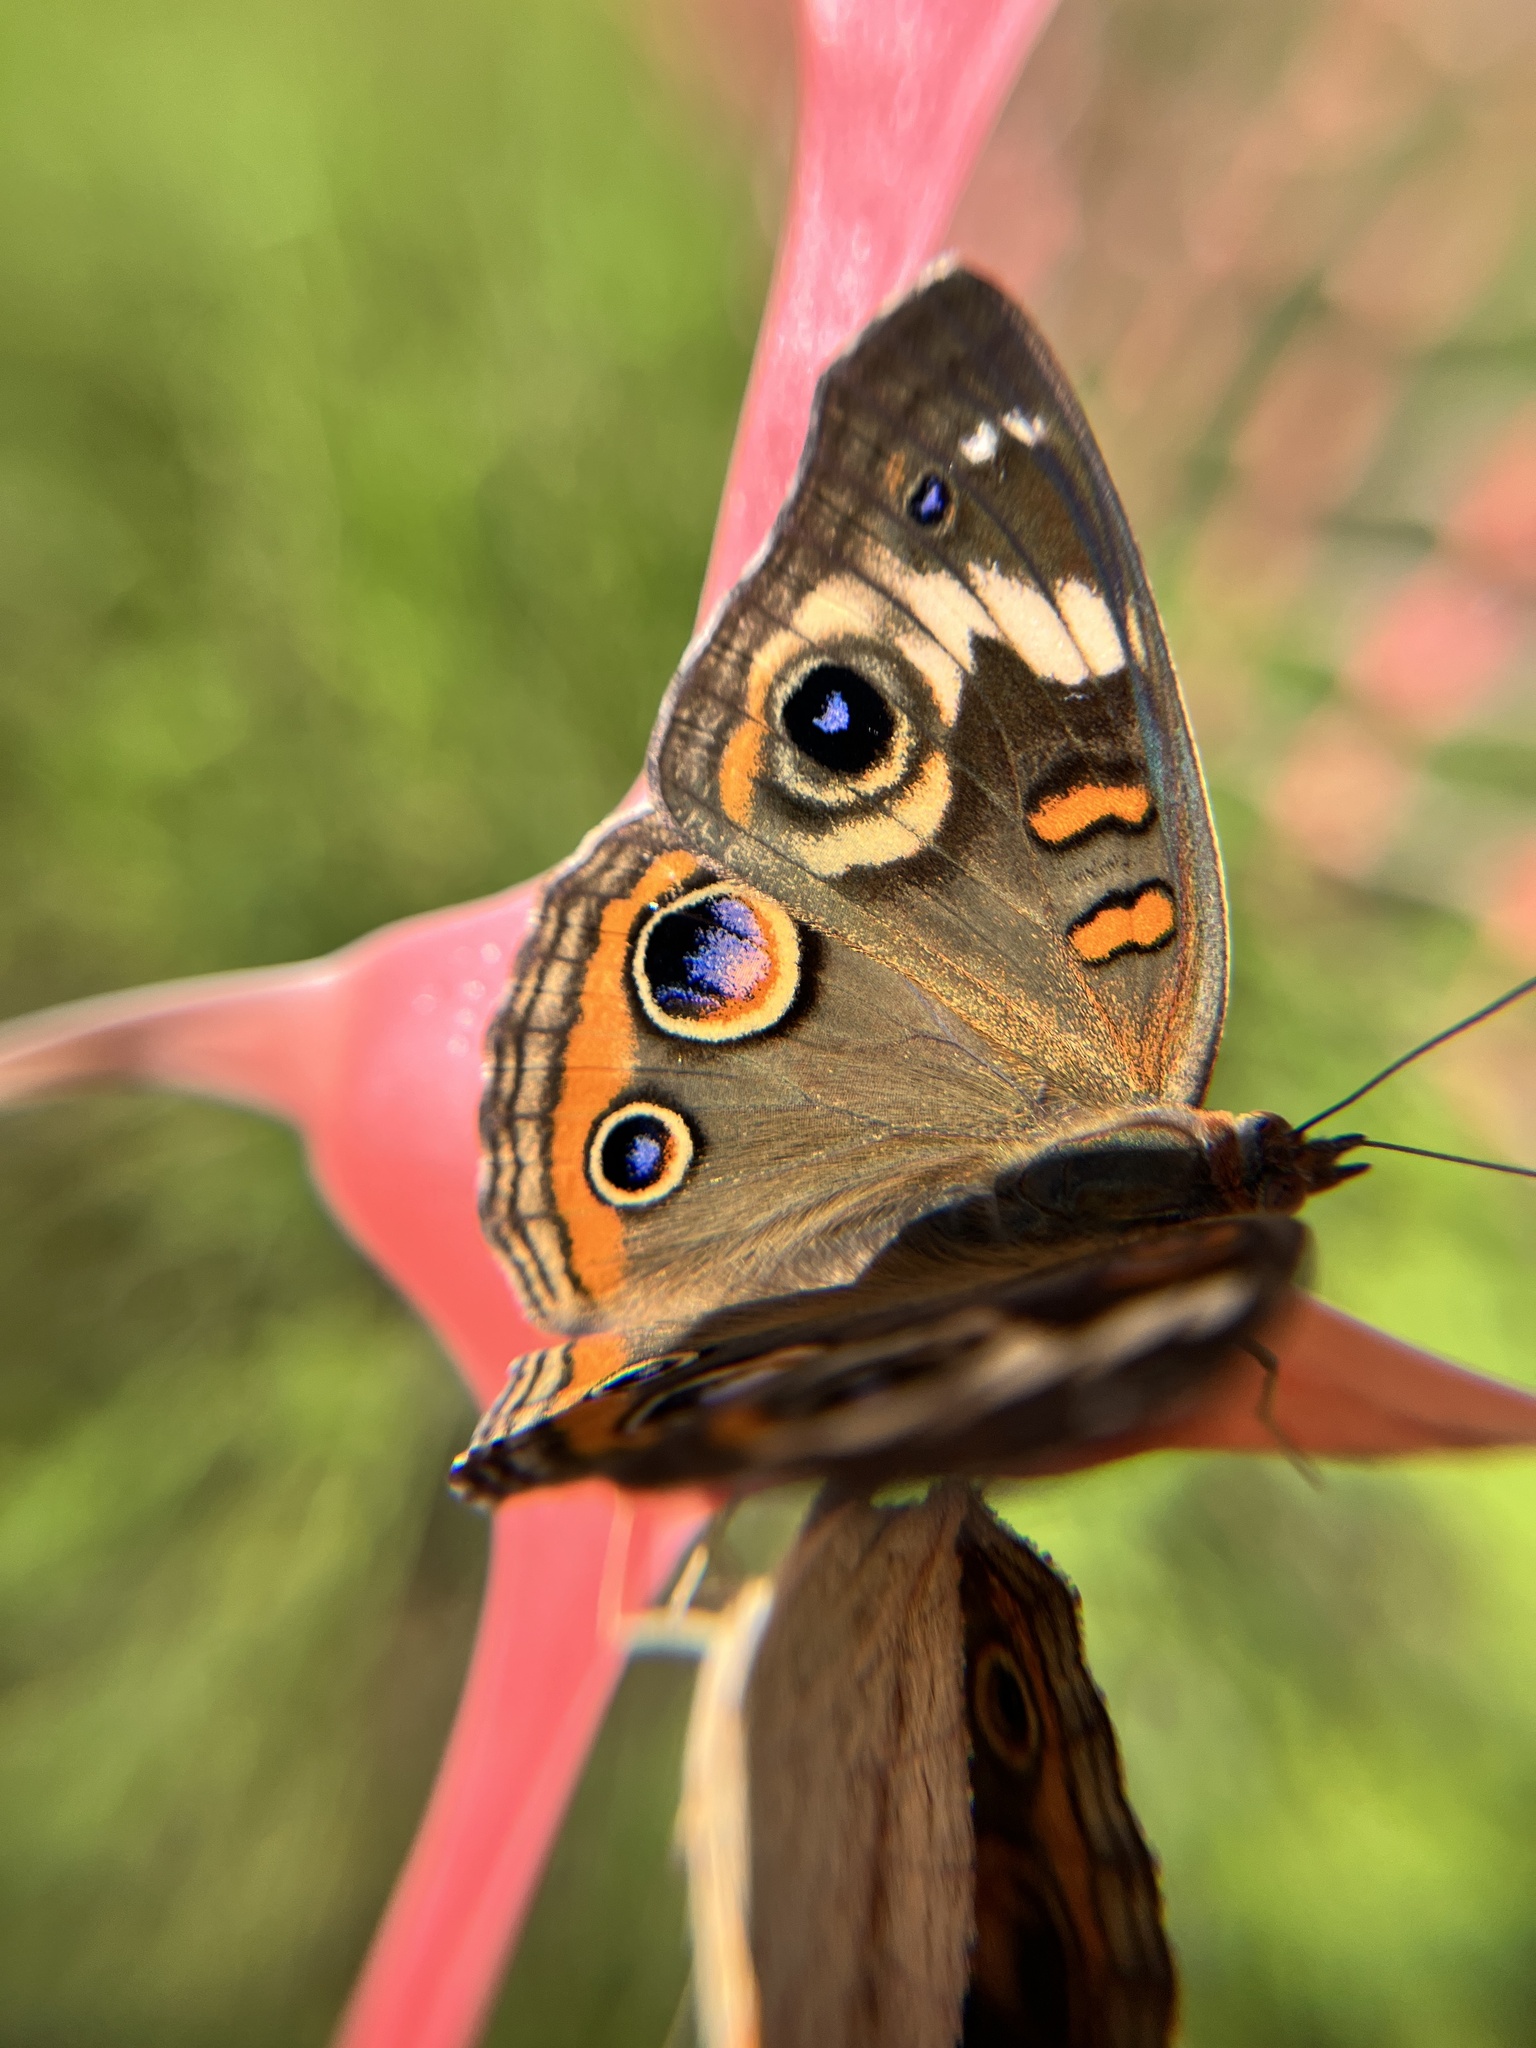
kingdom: Animalia
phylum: Arthropoda
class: Insecta
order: Lepidoptera
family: Nymphalidae
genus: Junonia
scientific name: Junonia coenia
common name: Common buckeye
